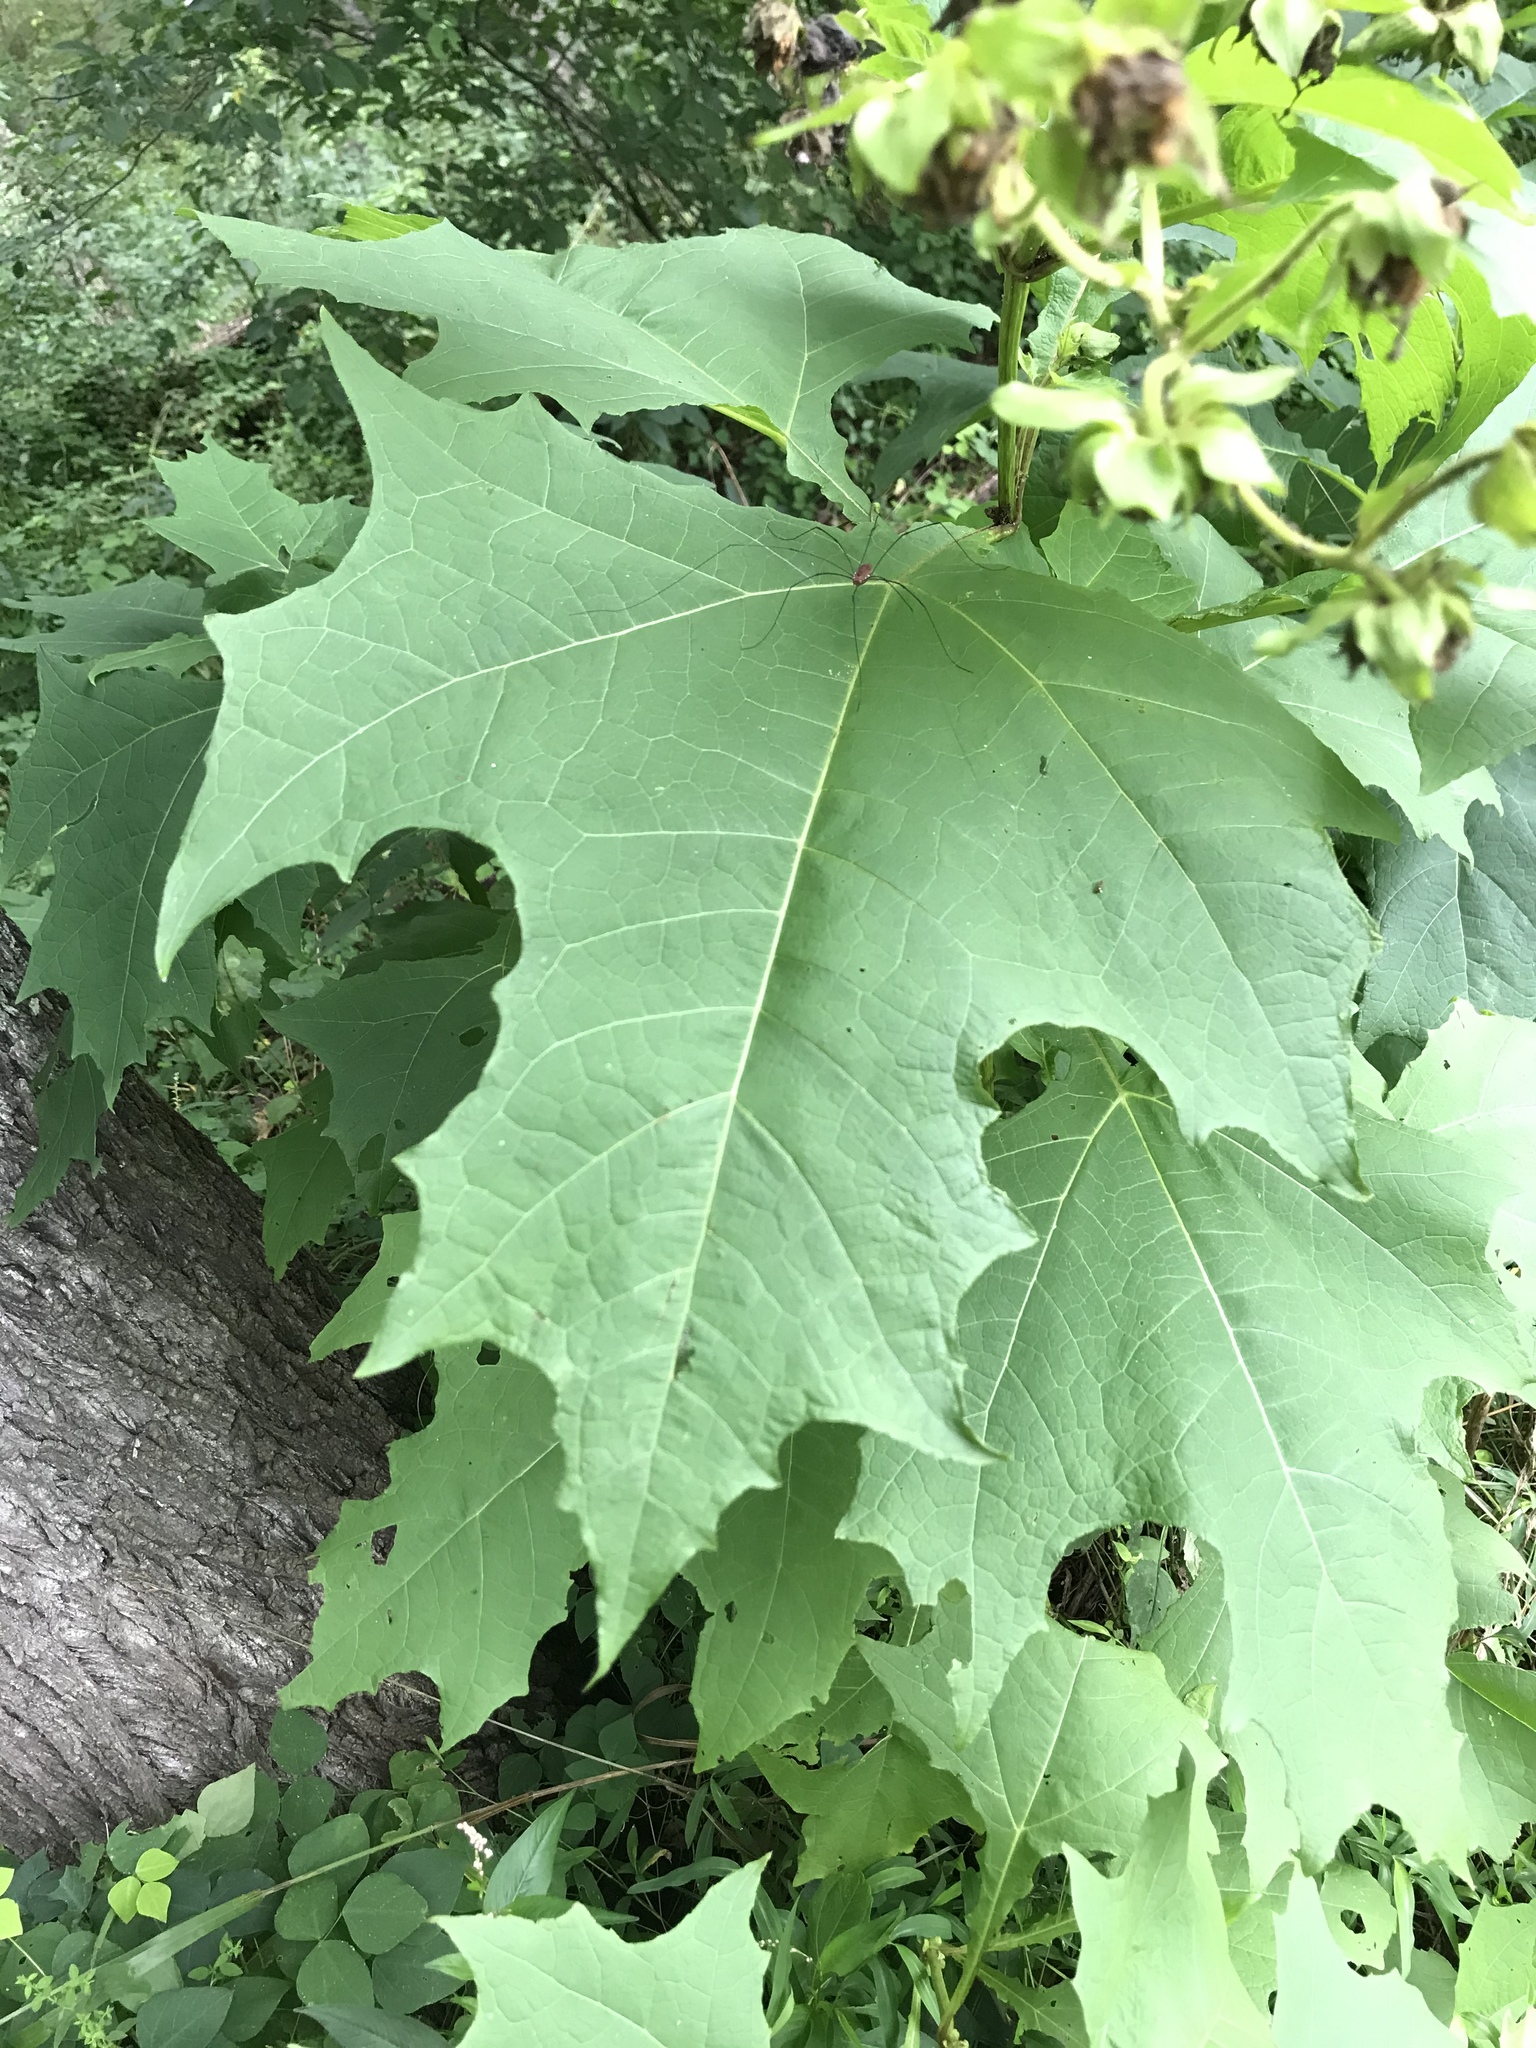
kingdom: Plantae
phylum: Tracheophyta
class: Magnoliopsida
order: Asterales
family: Asteraceae
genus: Smallanthus
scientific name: Smallanthus uvedalia
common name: Bear's-foot
